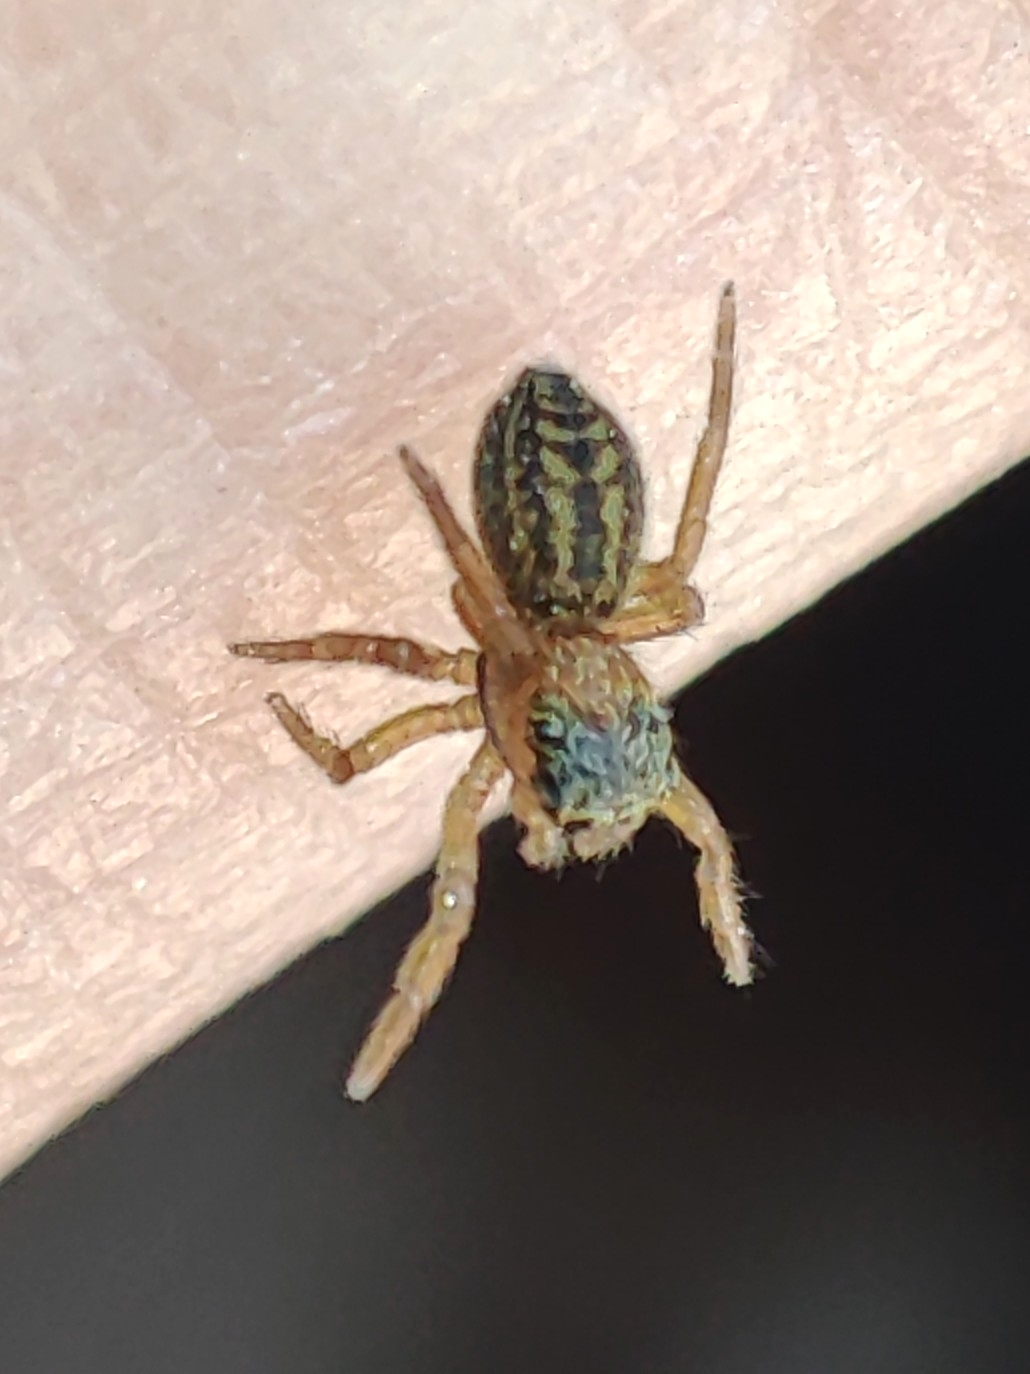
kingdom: Animalia
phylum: Arthropoda
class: Arachnida
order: Araneae
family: Salticidae
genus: Euophrys
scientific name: Euophrys frontalis
